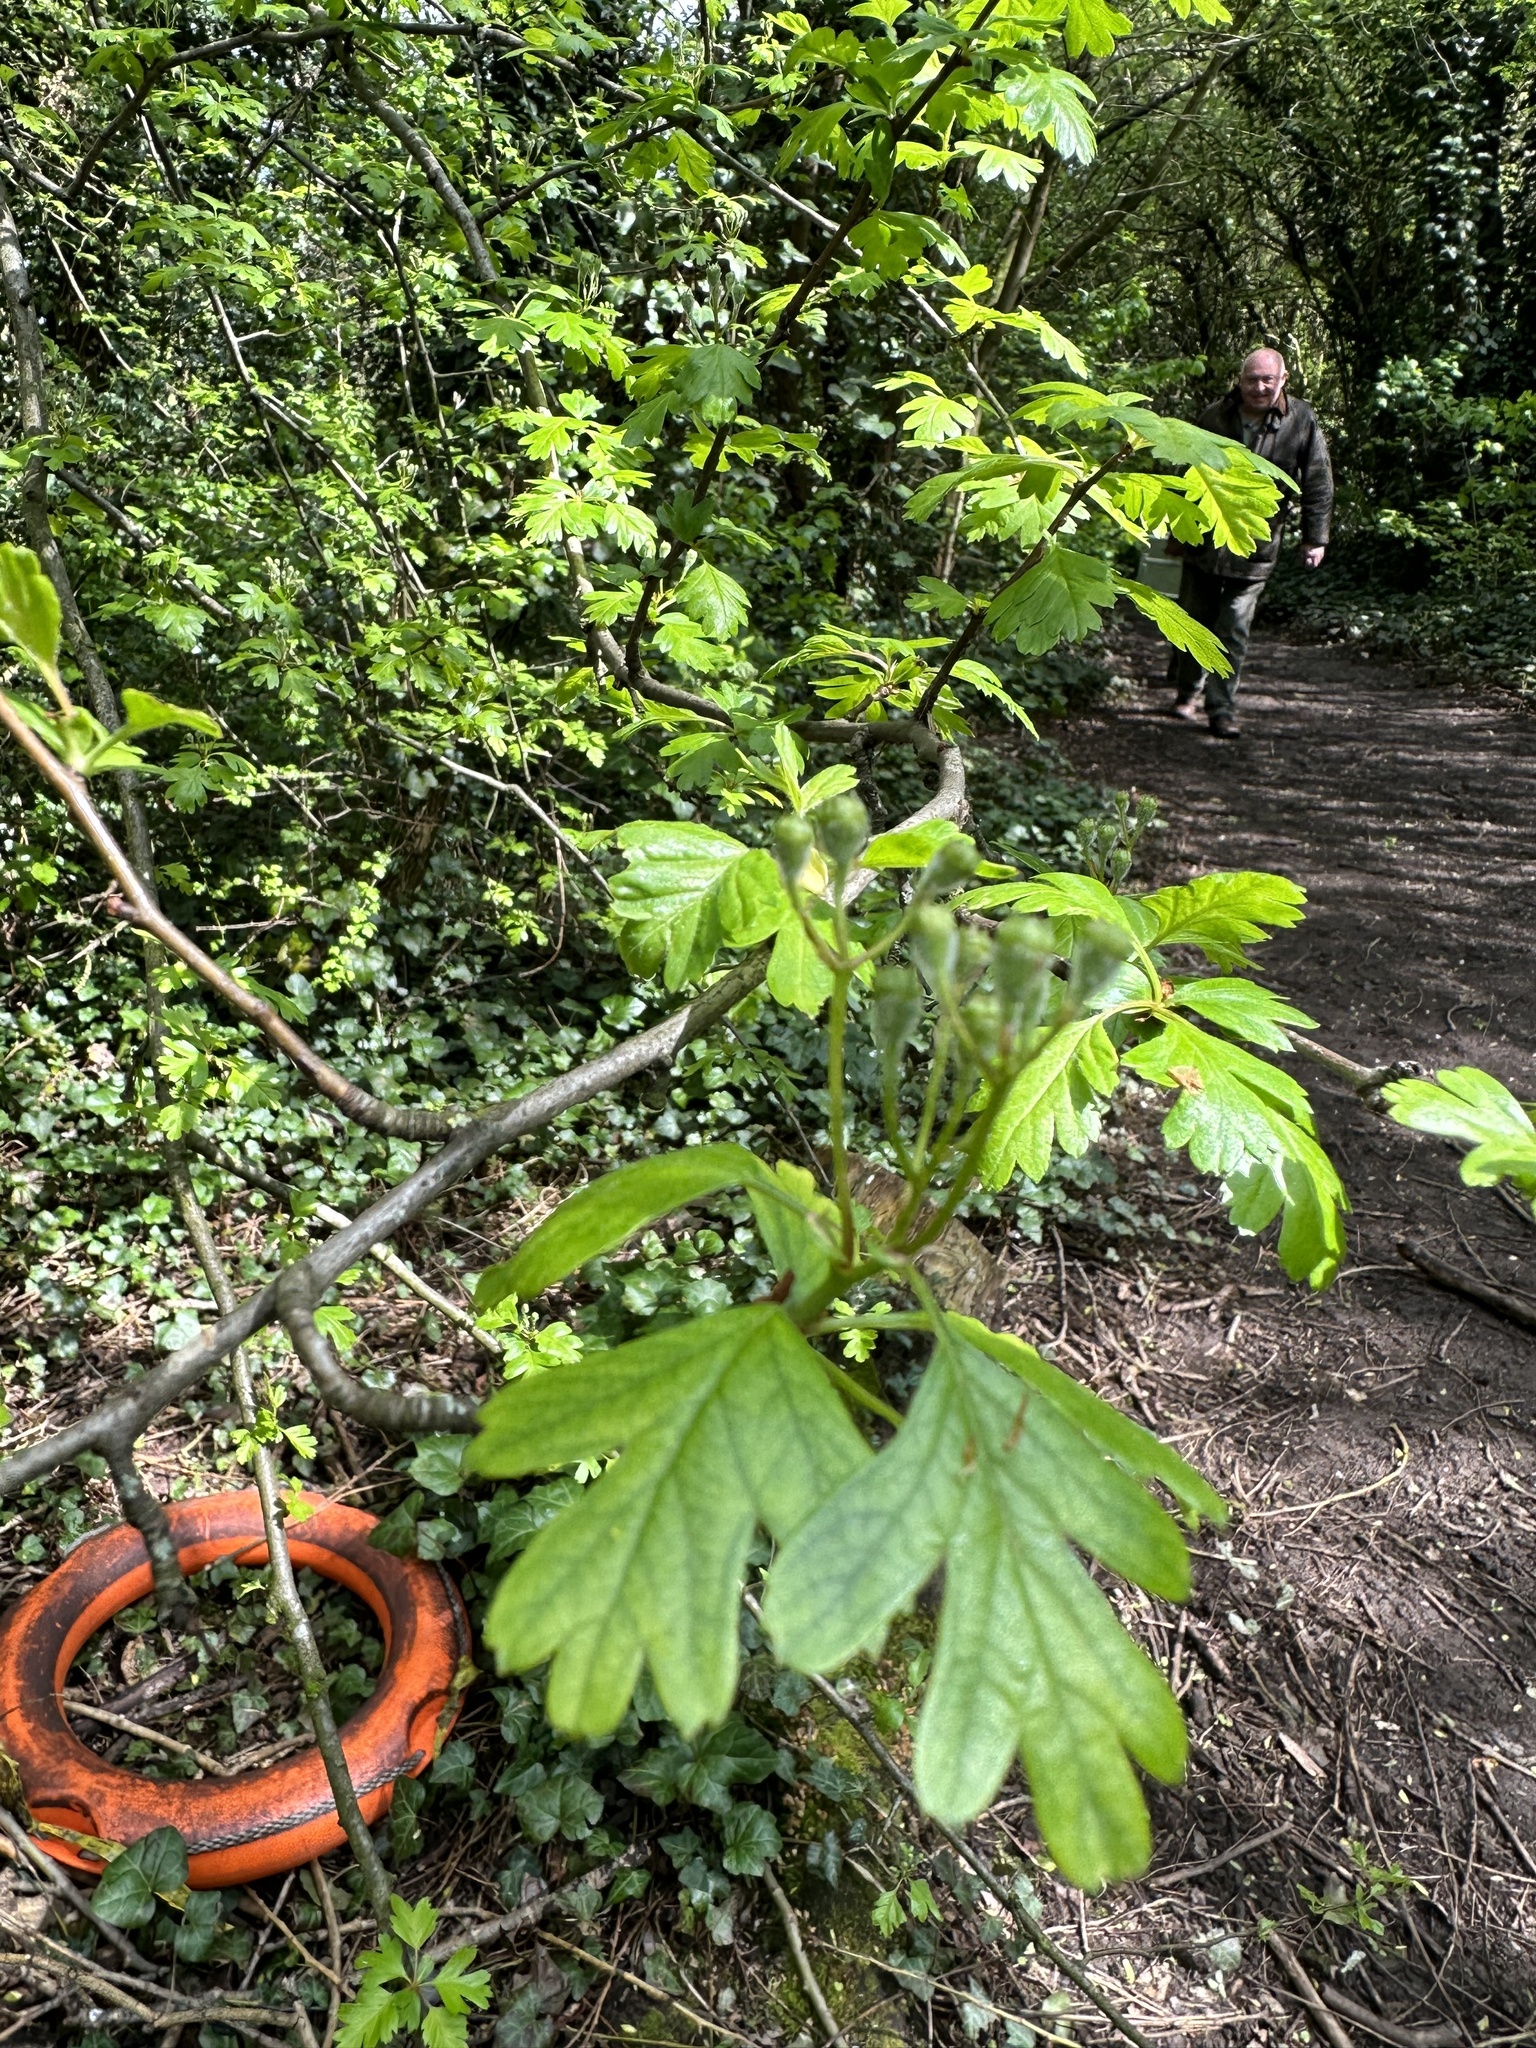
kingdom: Plantae
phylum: Tracheophyta
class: Magnoliopsida
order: Rosales
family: Rosaceae
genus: Crataegus
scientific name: Crataegus monogyna
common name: Hawthorn
